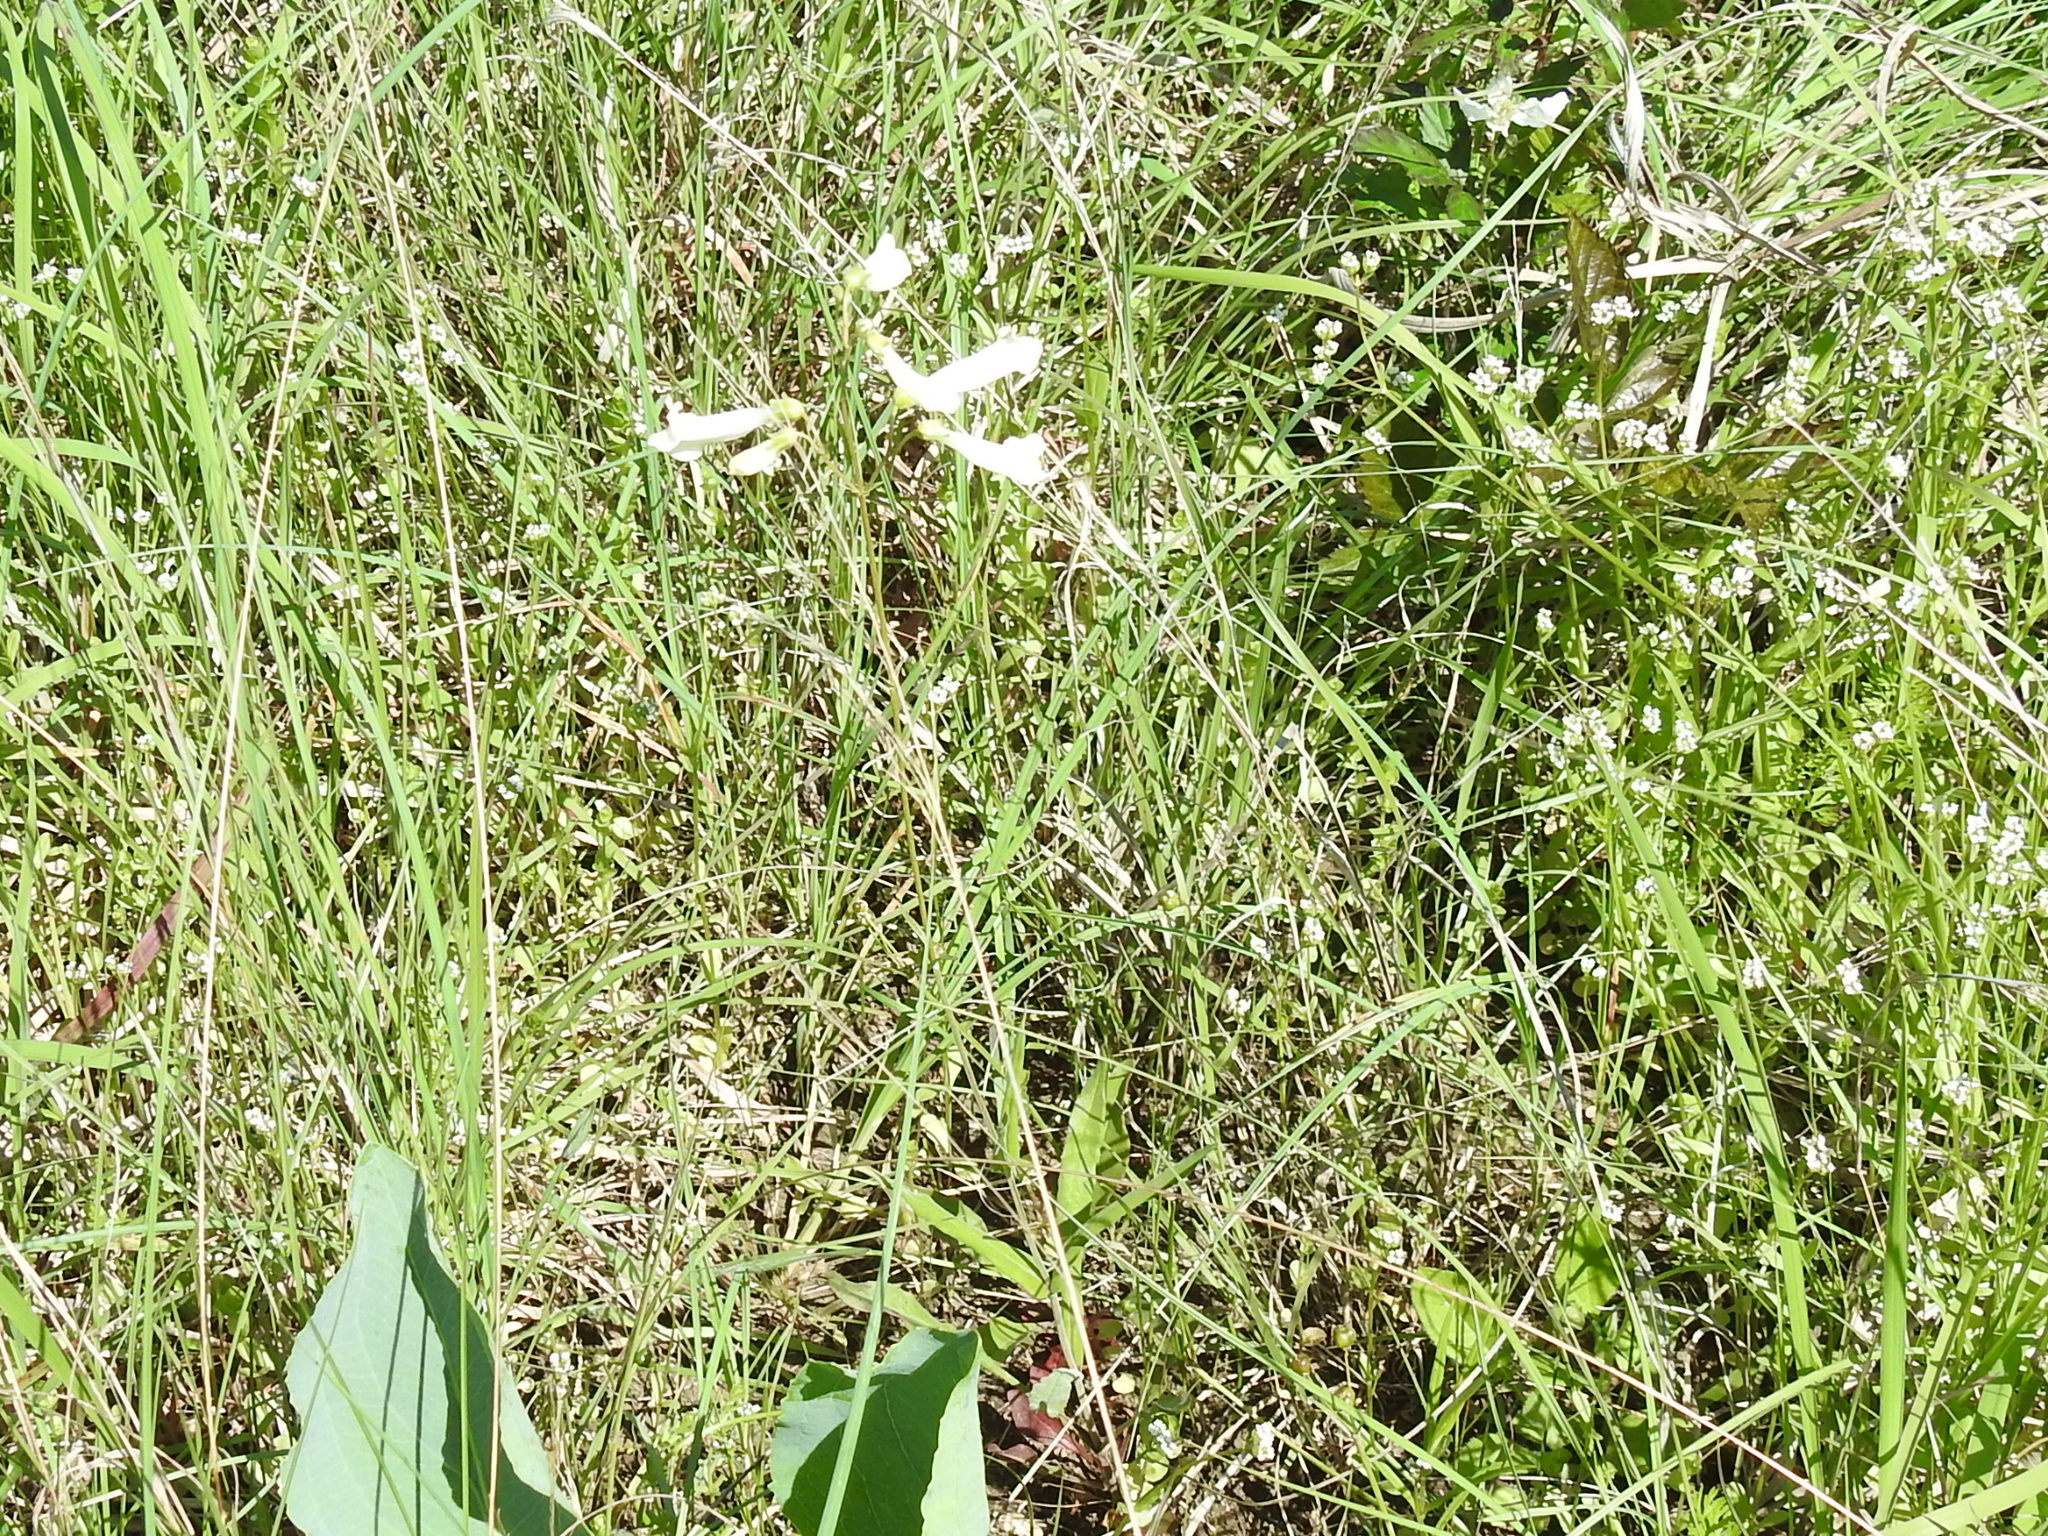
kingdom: Plantae
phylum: Tracheophyta
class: Magnoliopsida
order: Lamiales
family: Plantaginaceae
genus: Penstemon
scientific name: Penstemon oklahomensis
